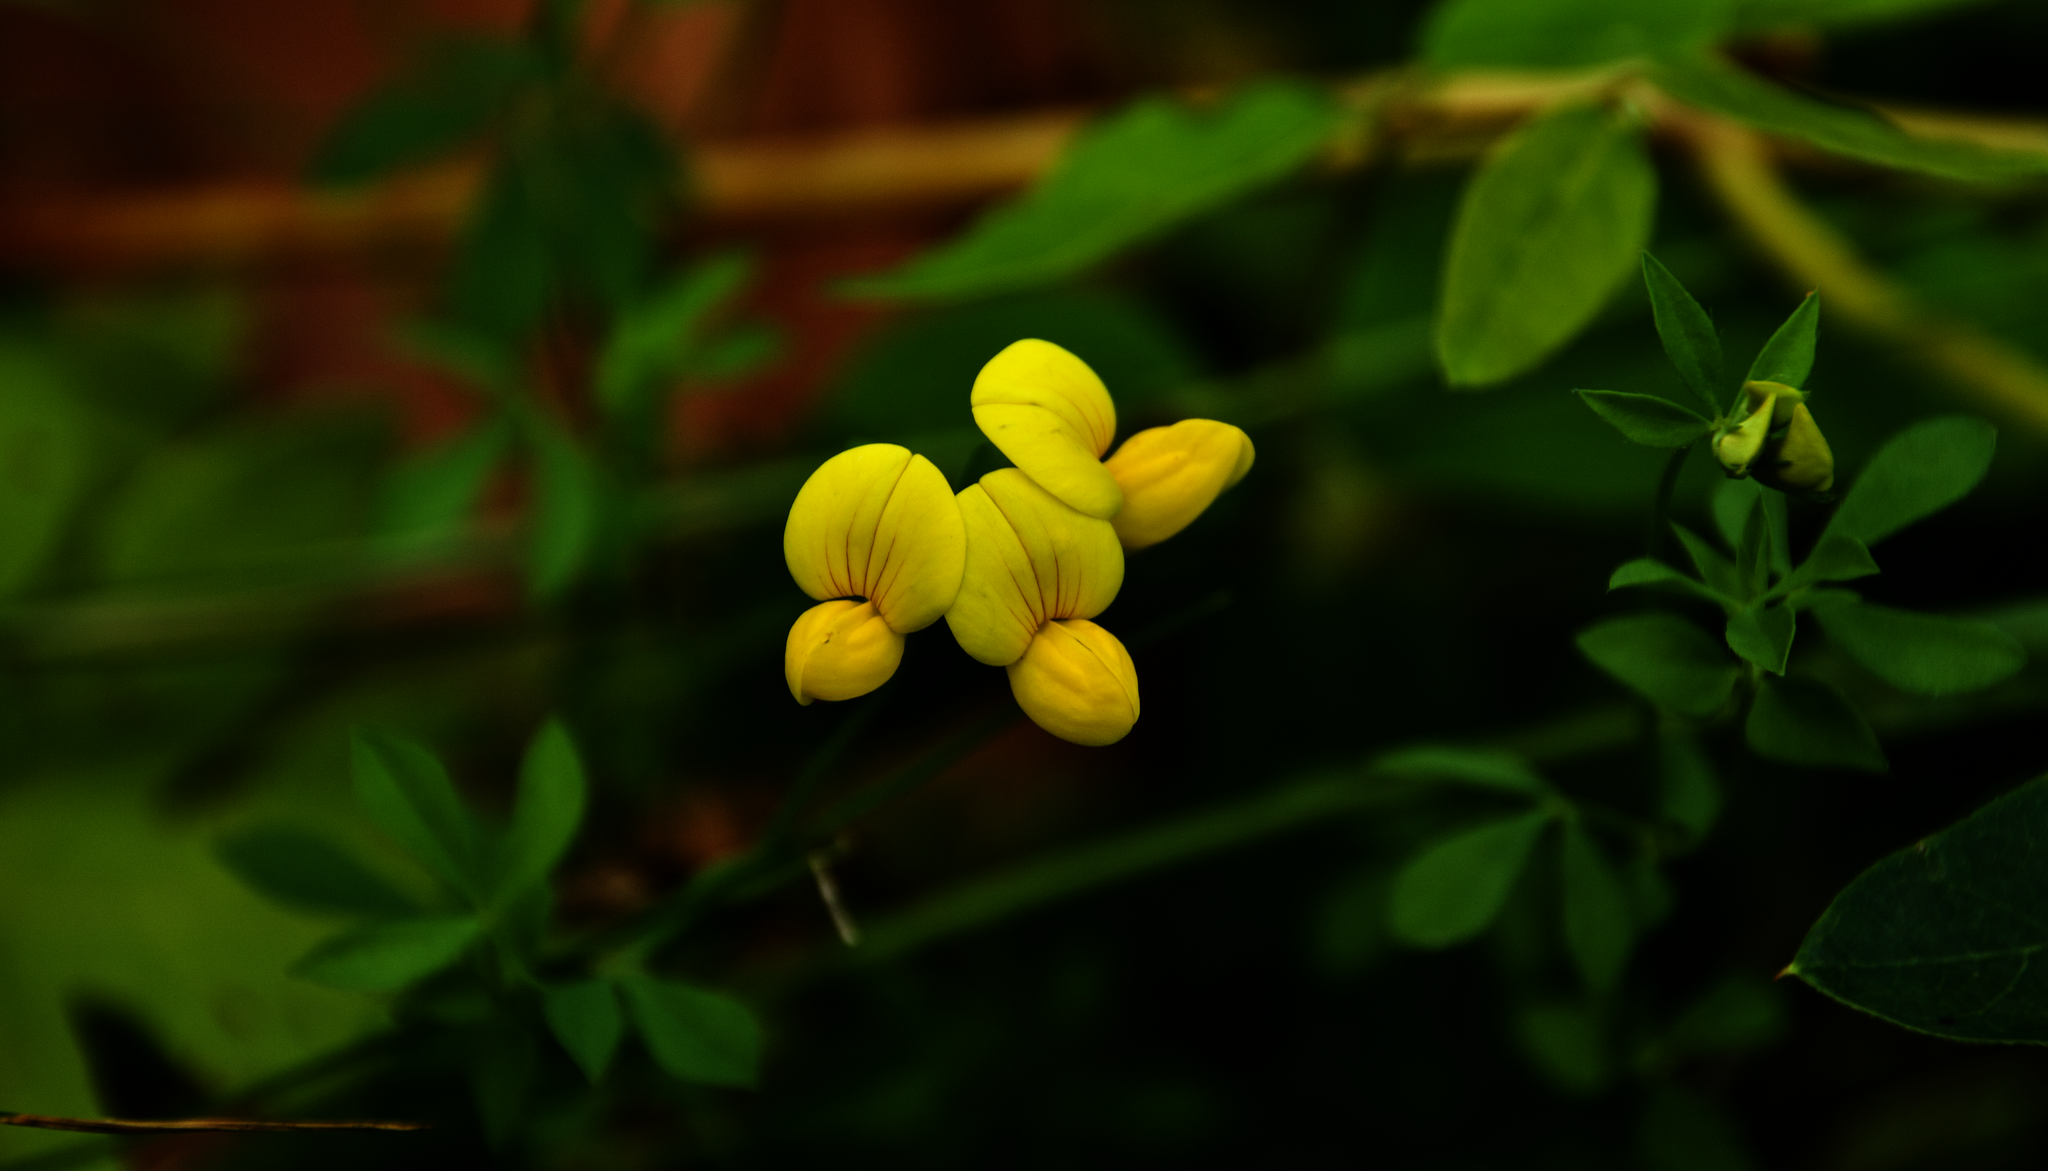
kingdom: Plantae
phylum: Tracheophyta
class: Magnoliopsida
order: Fabales
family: Fabaceae
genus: Lotus
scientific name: Lotus corniculatus
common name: Common bird's-foot-trefoil
